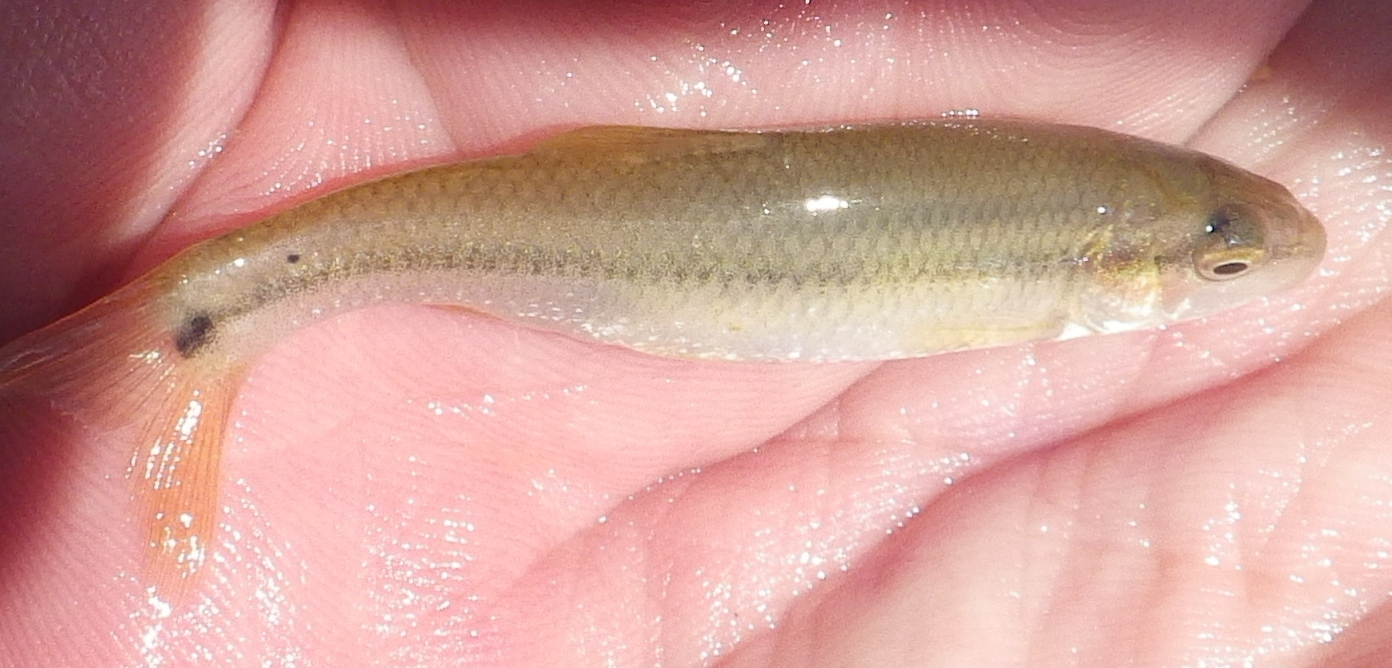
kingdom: Animalia
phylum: Chordata
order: Cypriniformes
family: Cyprinidae
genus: Nocomis
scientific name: Nocomis biguttatus
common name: Hornyhead chub
